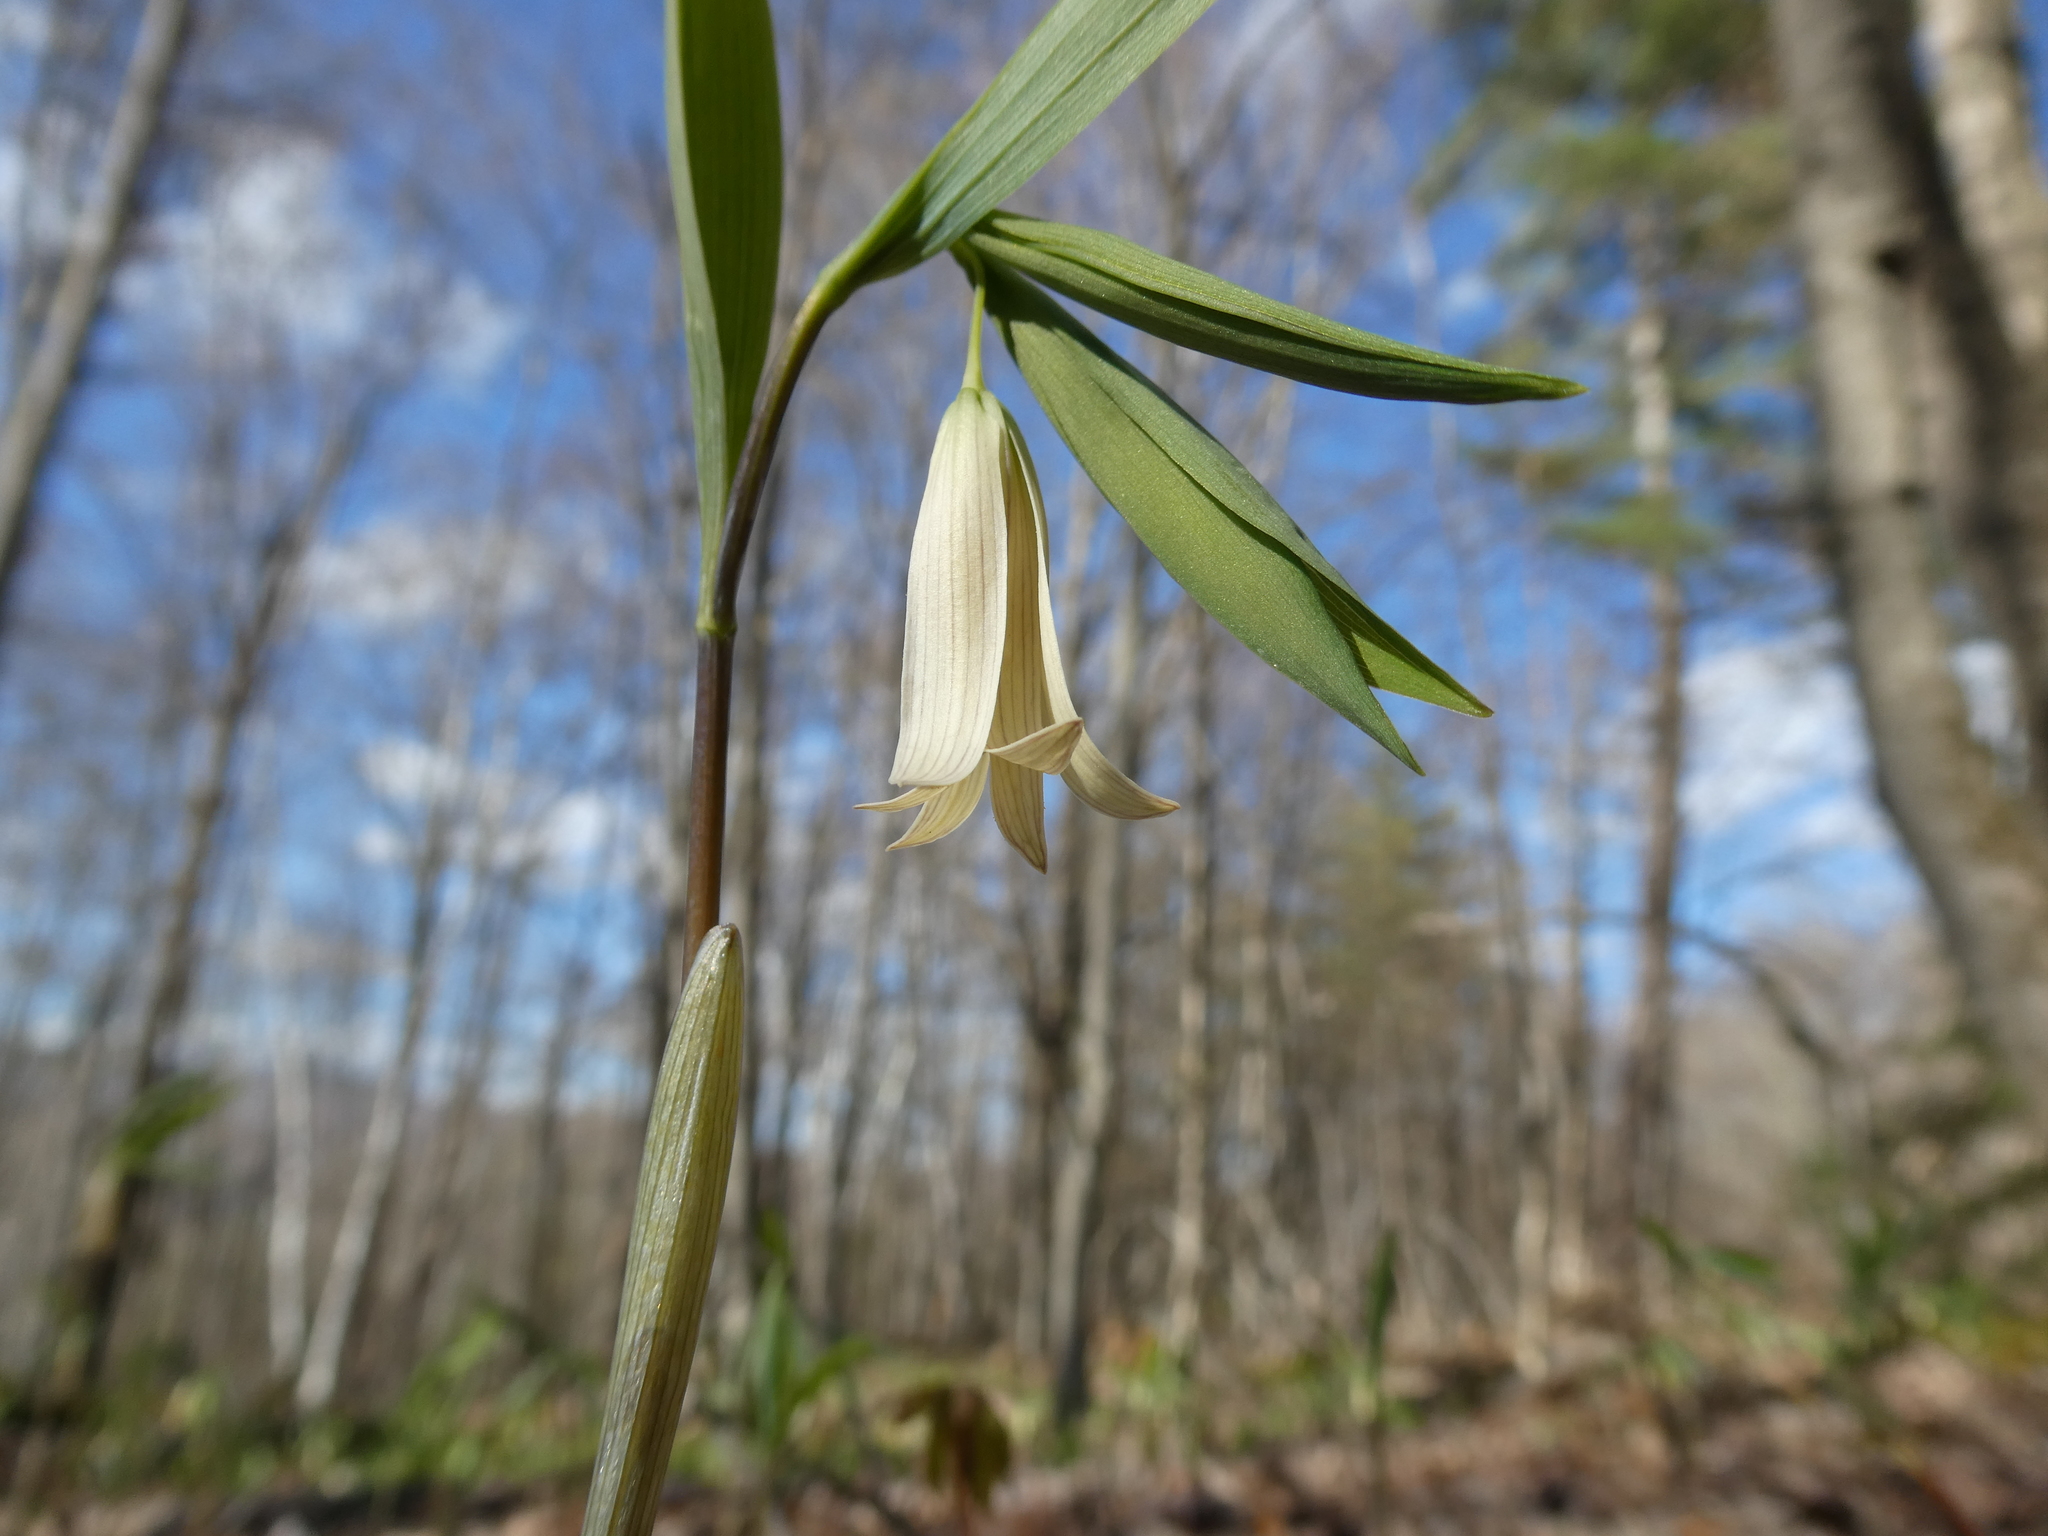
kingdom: Plantae
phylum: Tracheophyta
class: Liliopsida
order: Liliales
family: Colchicaceae
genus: Uvularia
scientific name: Uvularia sessilifolia
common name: Straw-lily
